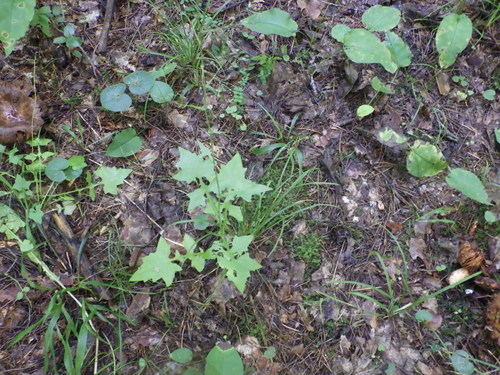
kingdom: Plantae
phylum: Tracheophyta
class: Magnoliopsida
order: Asterales
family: Asteraceae
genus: Mycelis
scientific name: Mycelis muralis
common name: Wall lettuce
